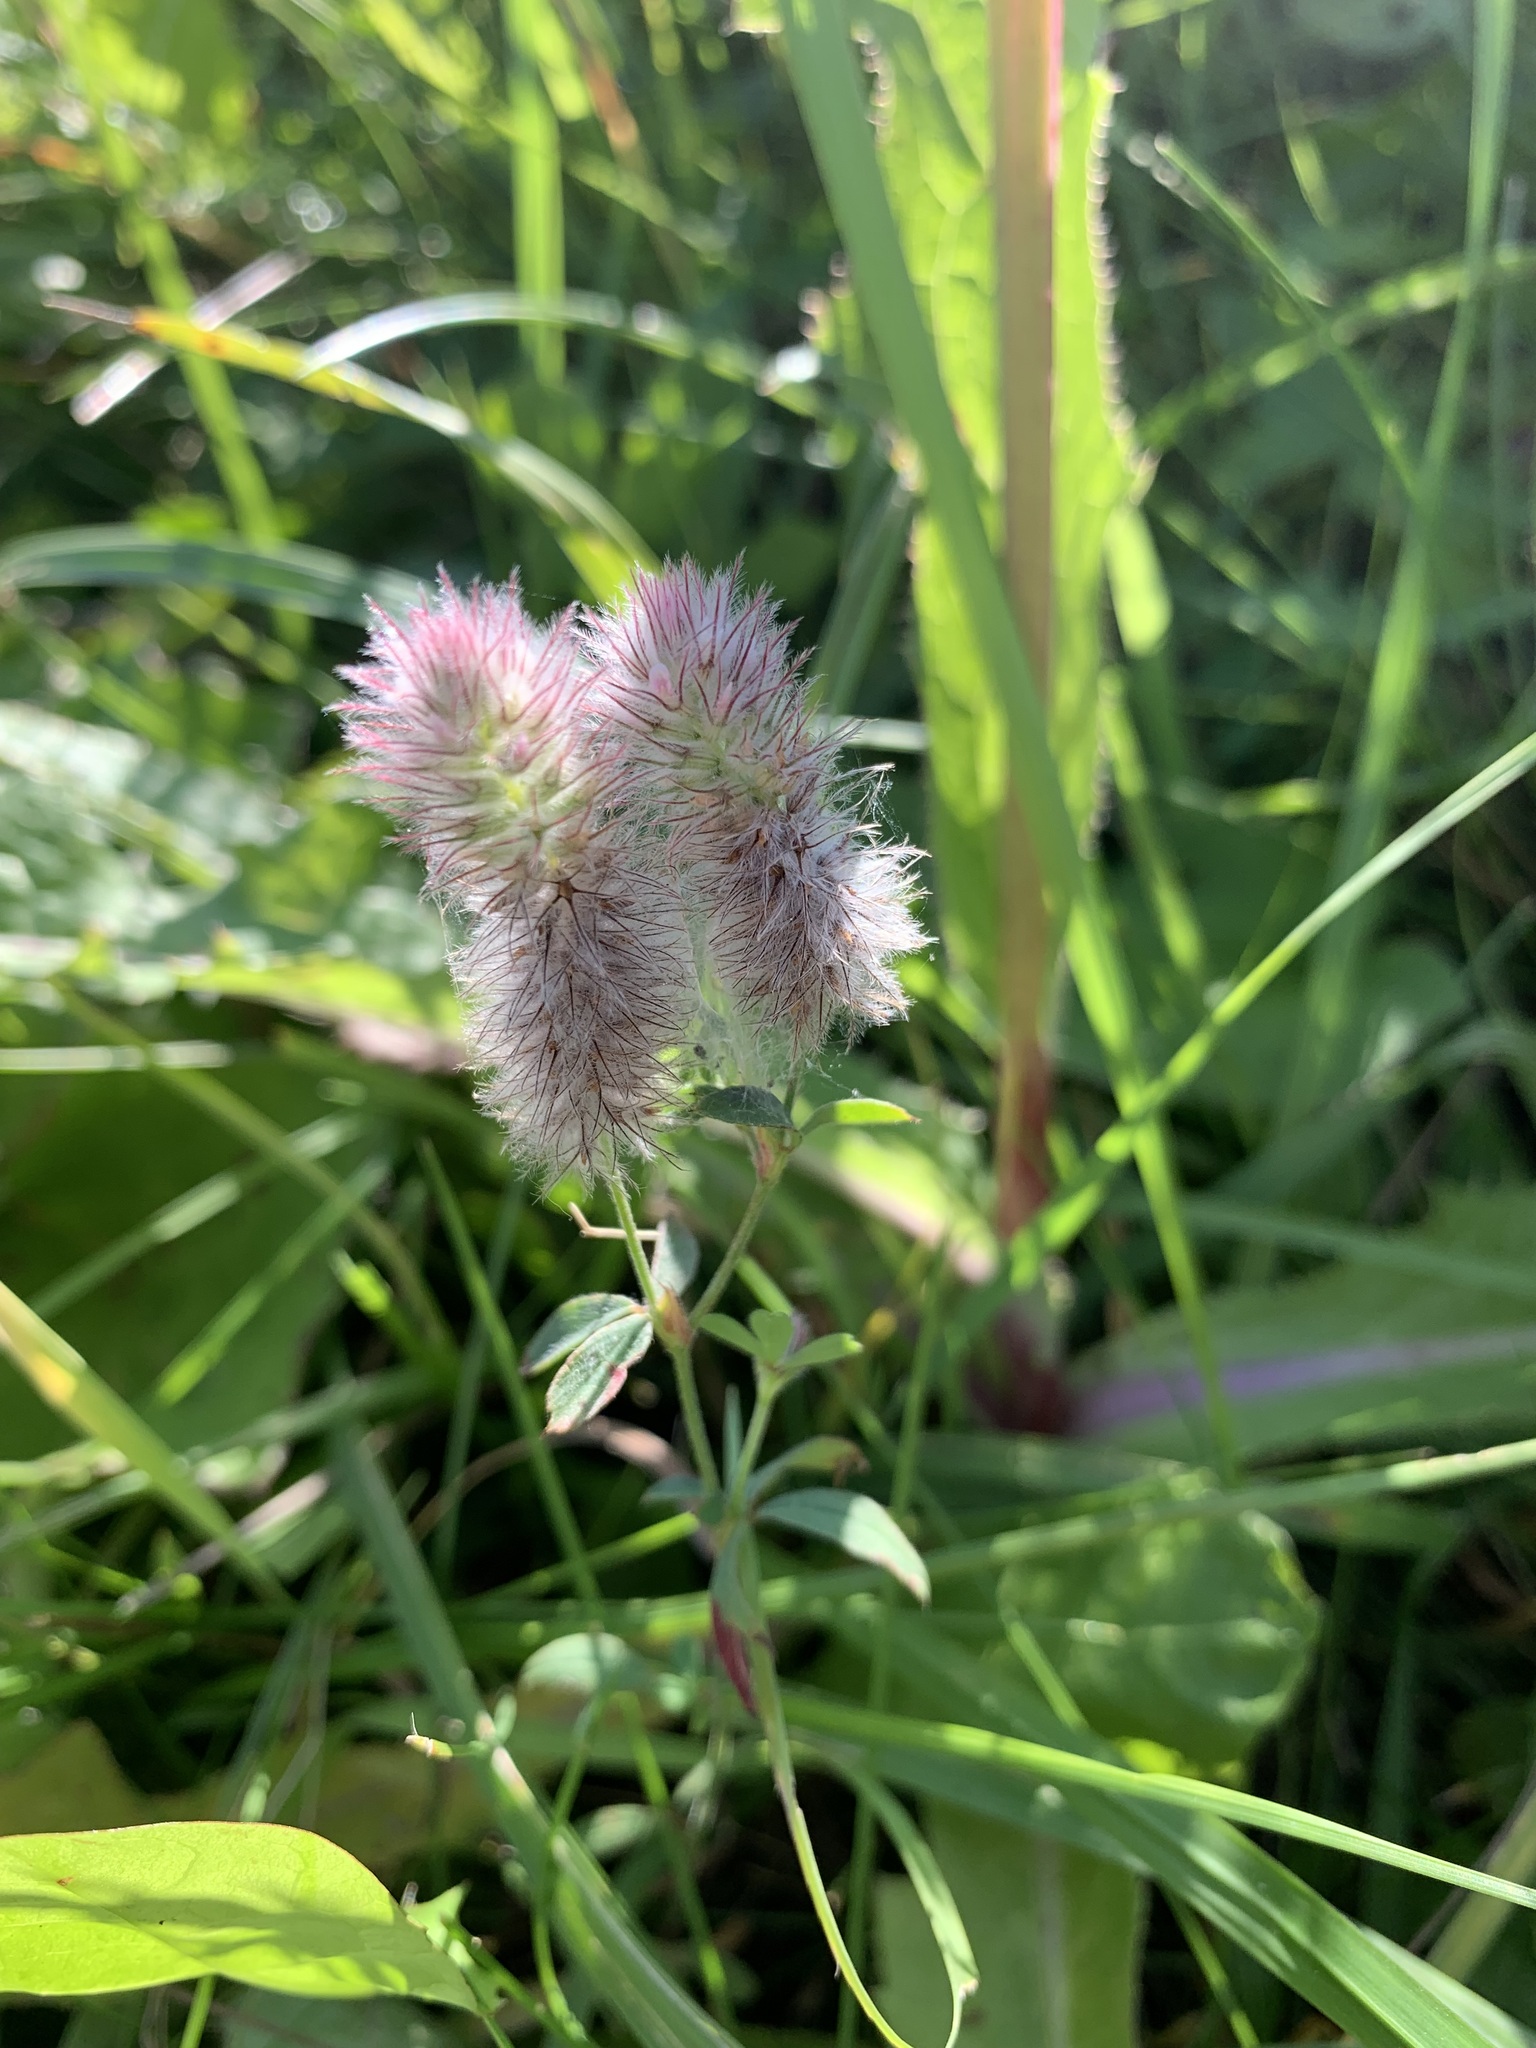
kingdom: Plantae
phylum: Tracheophyta
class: Magnoliopsida
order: Fabales
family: Fabaceae
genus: Trifolium
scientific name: Trifolium arvense
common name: Hare's-foot clover
